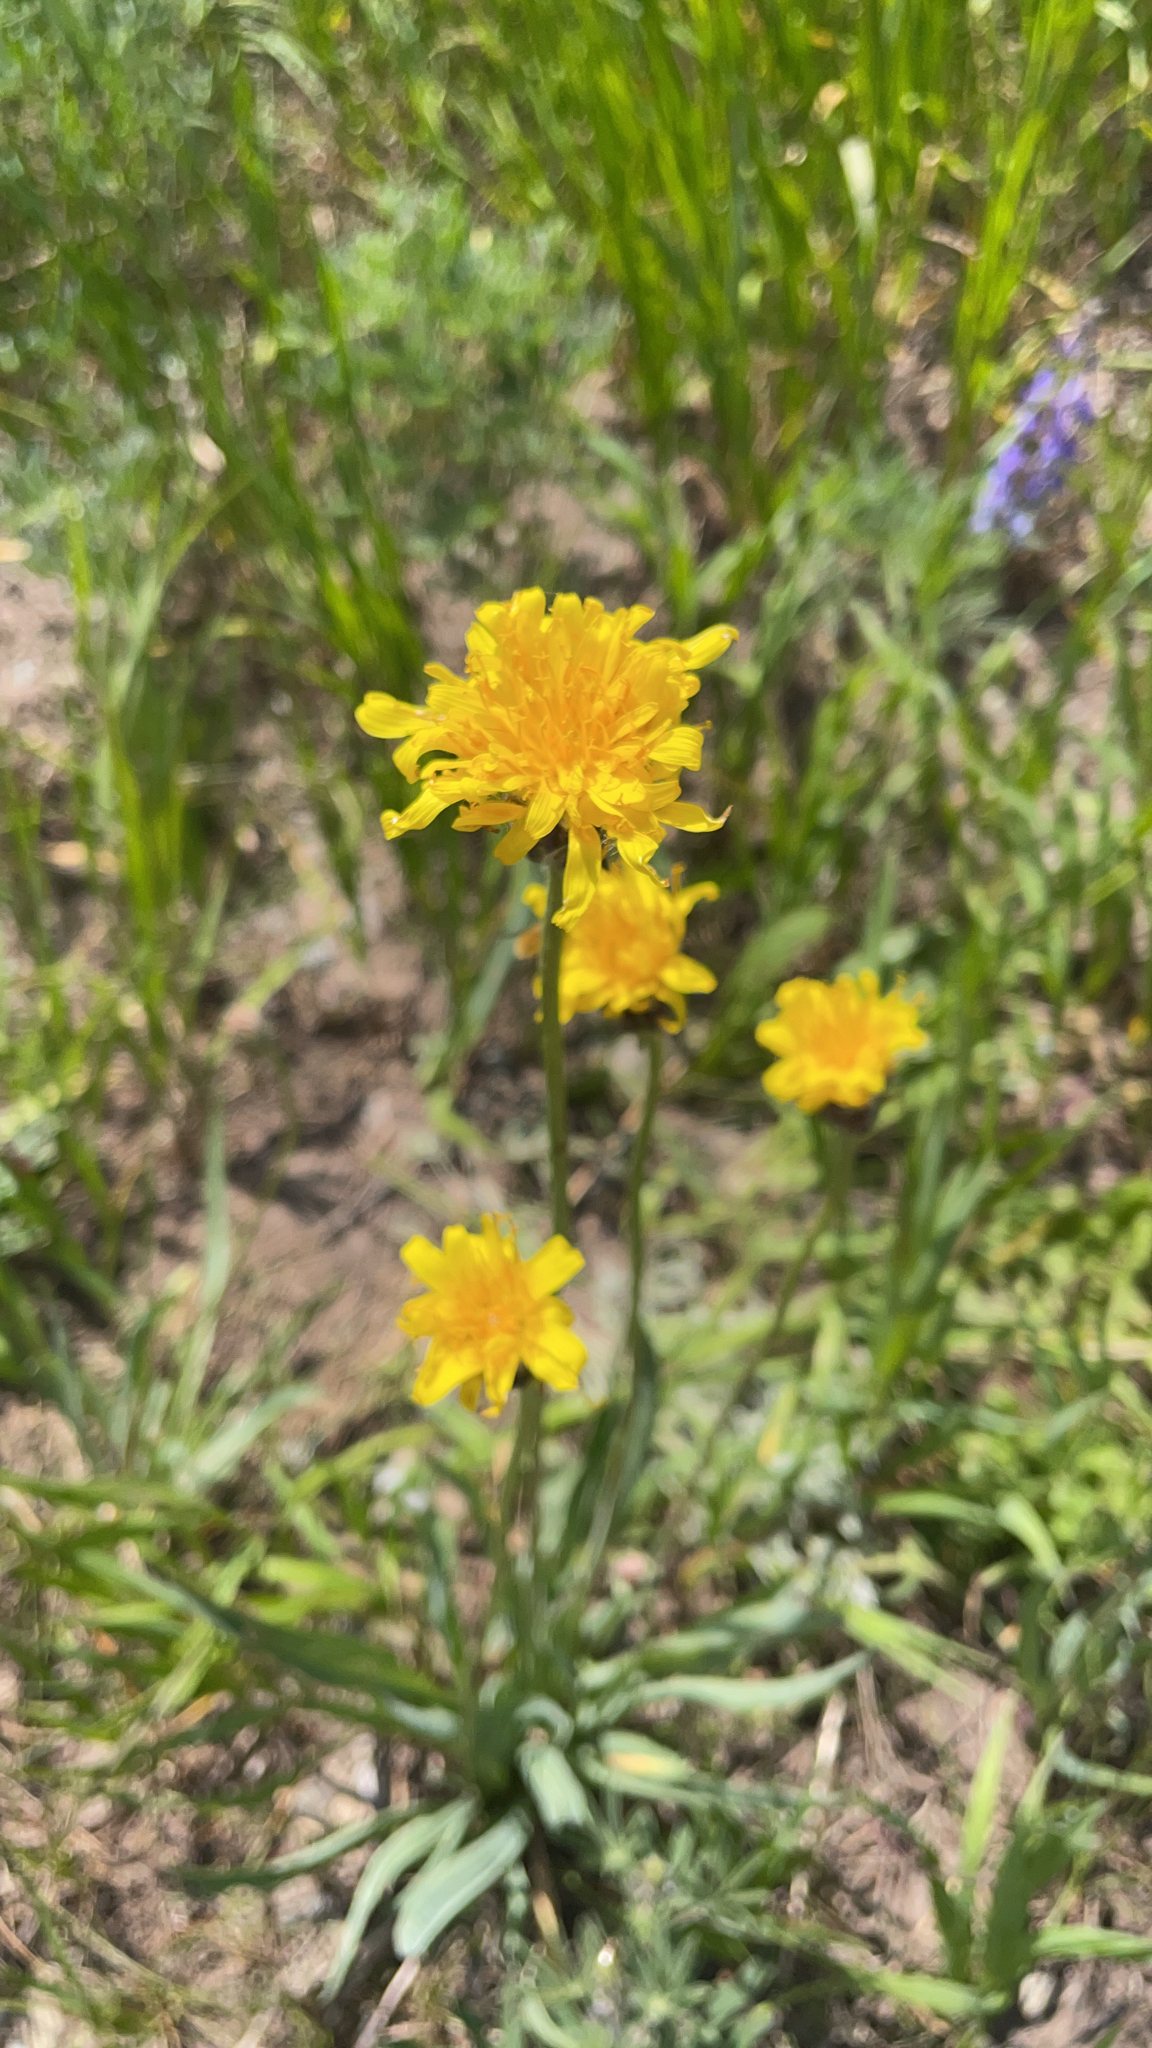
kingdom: Plantae
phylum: Tracheophyta
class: Magnoliopsida
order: Asterales
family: Asteraceae
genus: Agoseris
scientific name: Agoseris glauca
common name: Prairie agoseris
